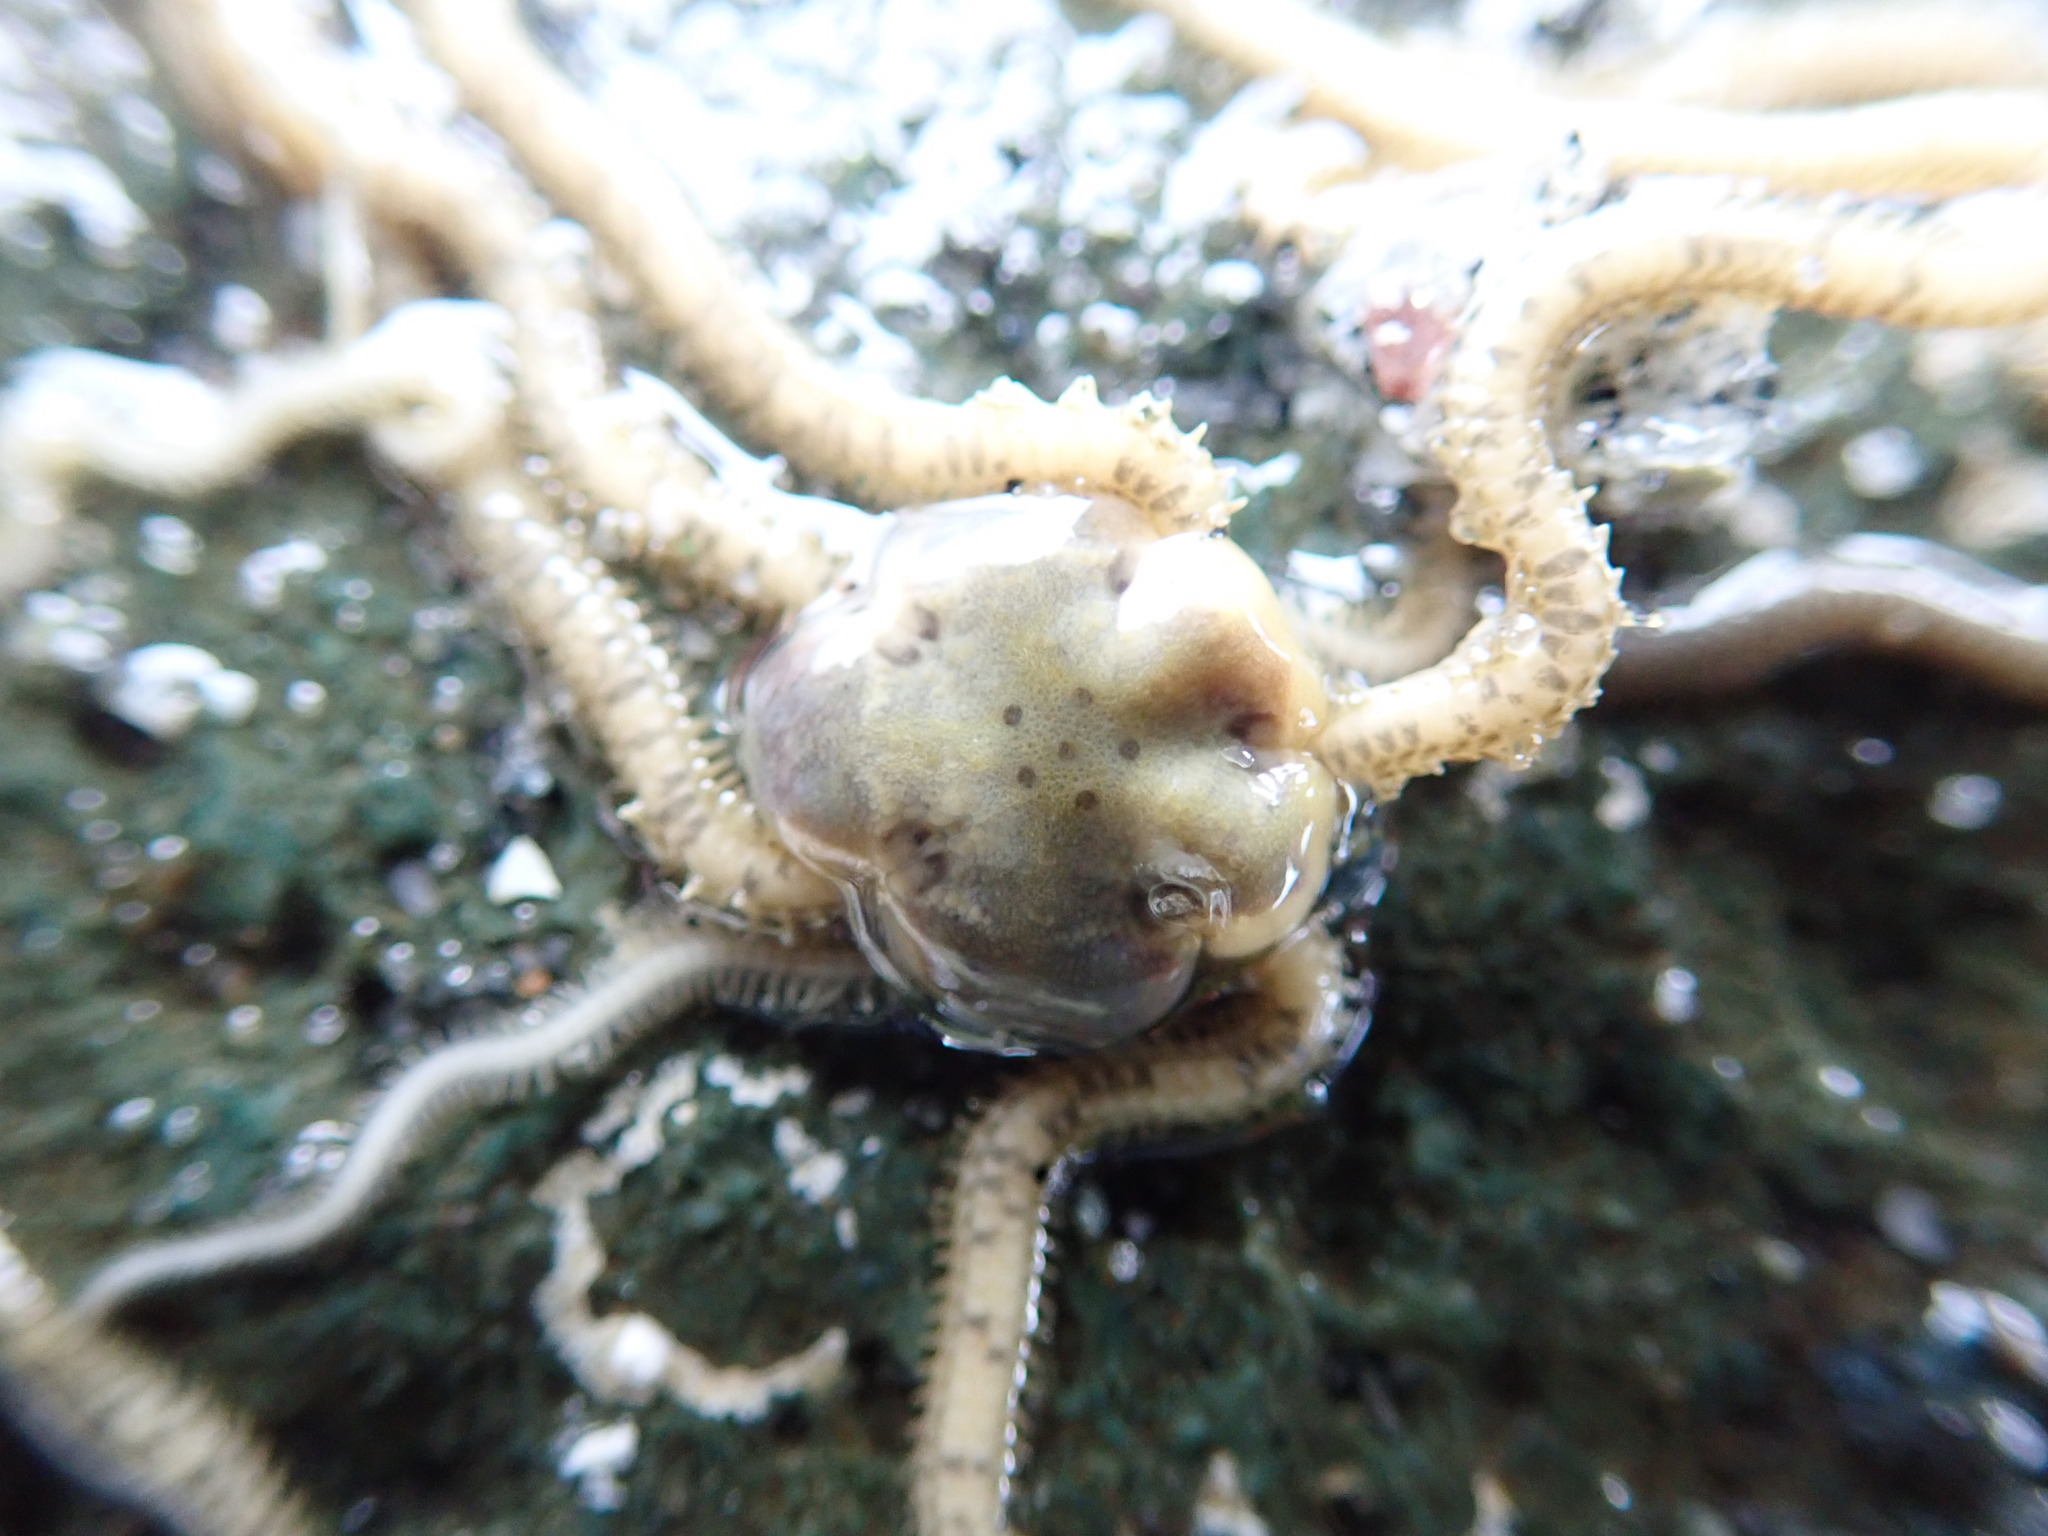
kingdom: Animalia
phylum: Echinodermata
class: Ophiuroidea
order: Amphilepidida
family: Amphiuridae
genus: Amphiodia
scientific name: Amphiodia occidentalis
